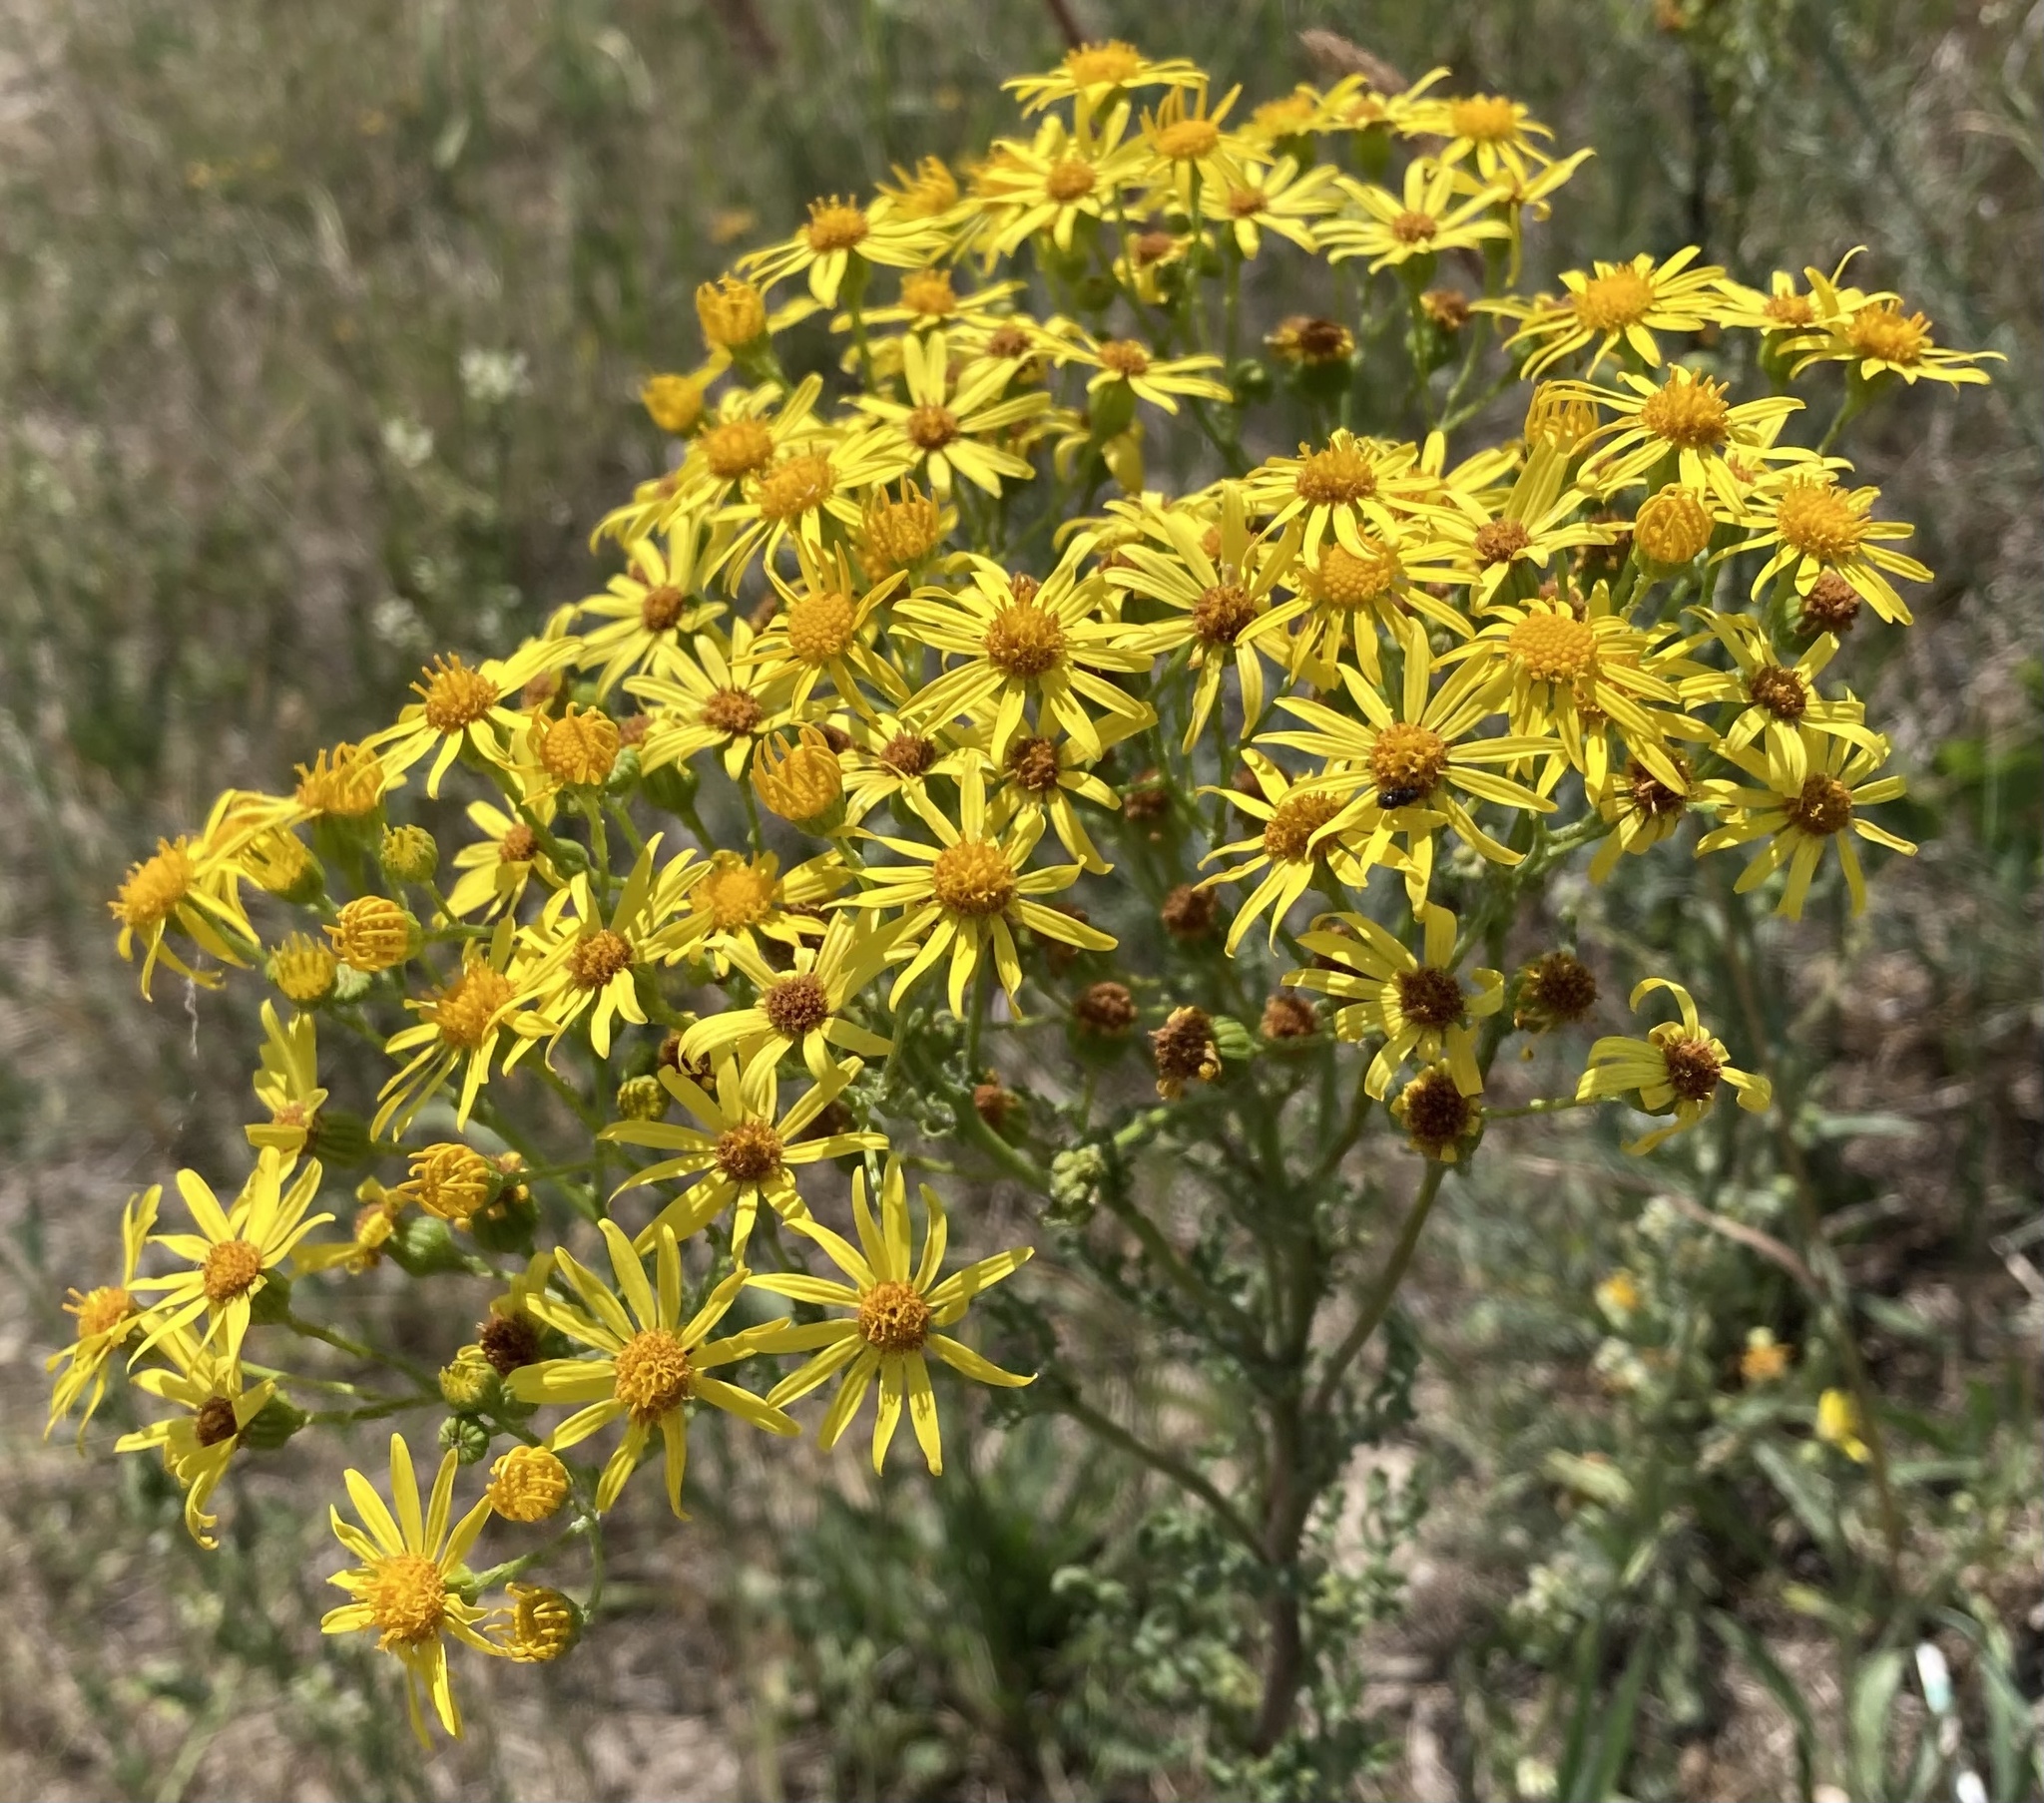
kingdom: Plantae
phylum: Tracheophyta
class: Magnoliopsida
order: Asterales
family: Asteraceae
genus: Jacobaea
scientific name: Jacobaea vulgaris
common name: Stinking willie
